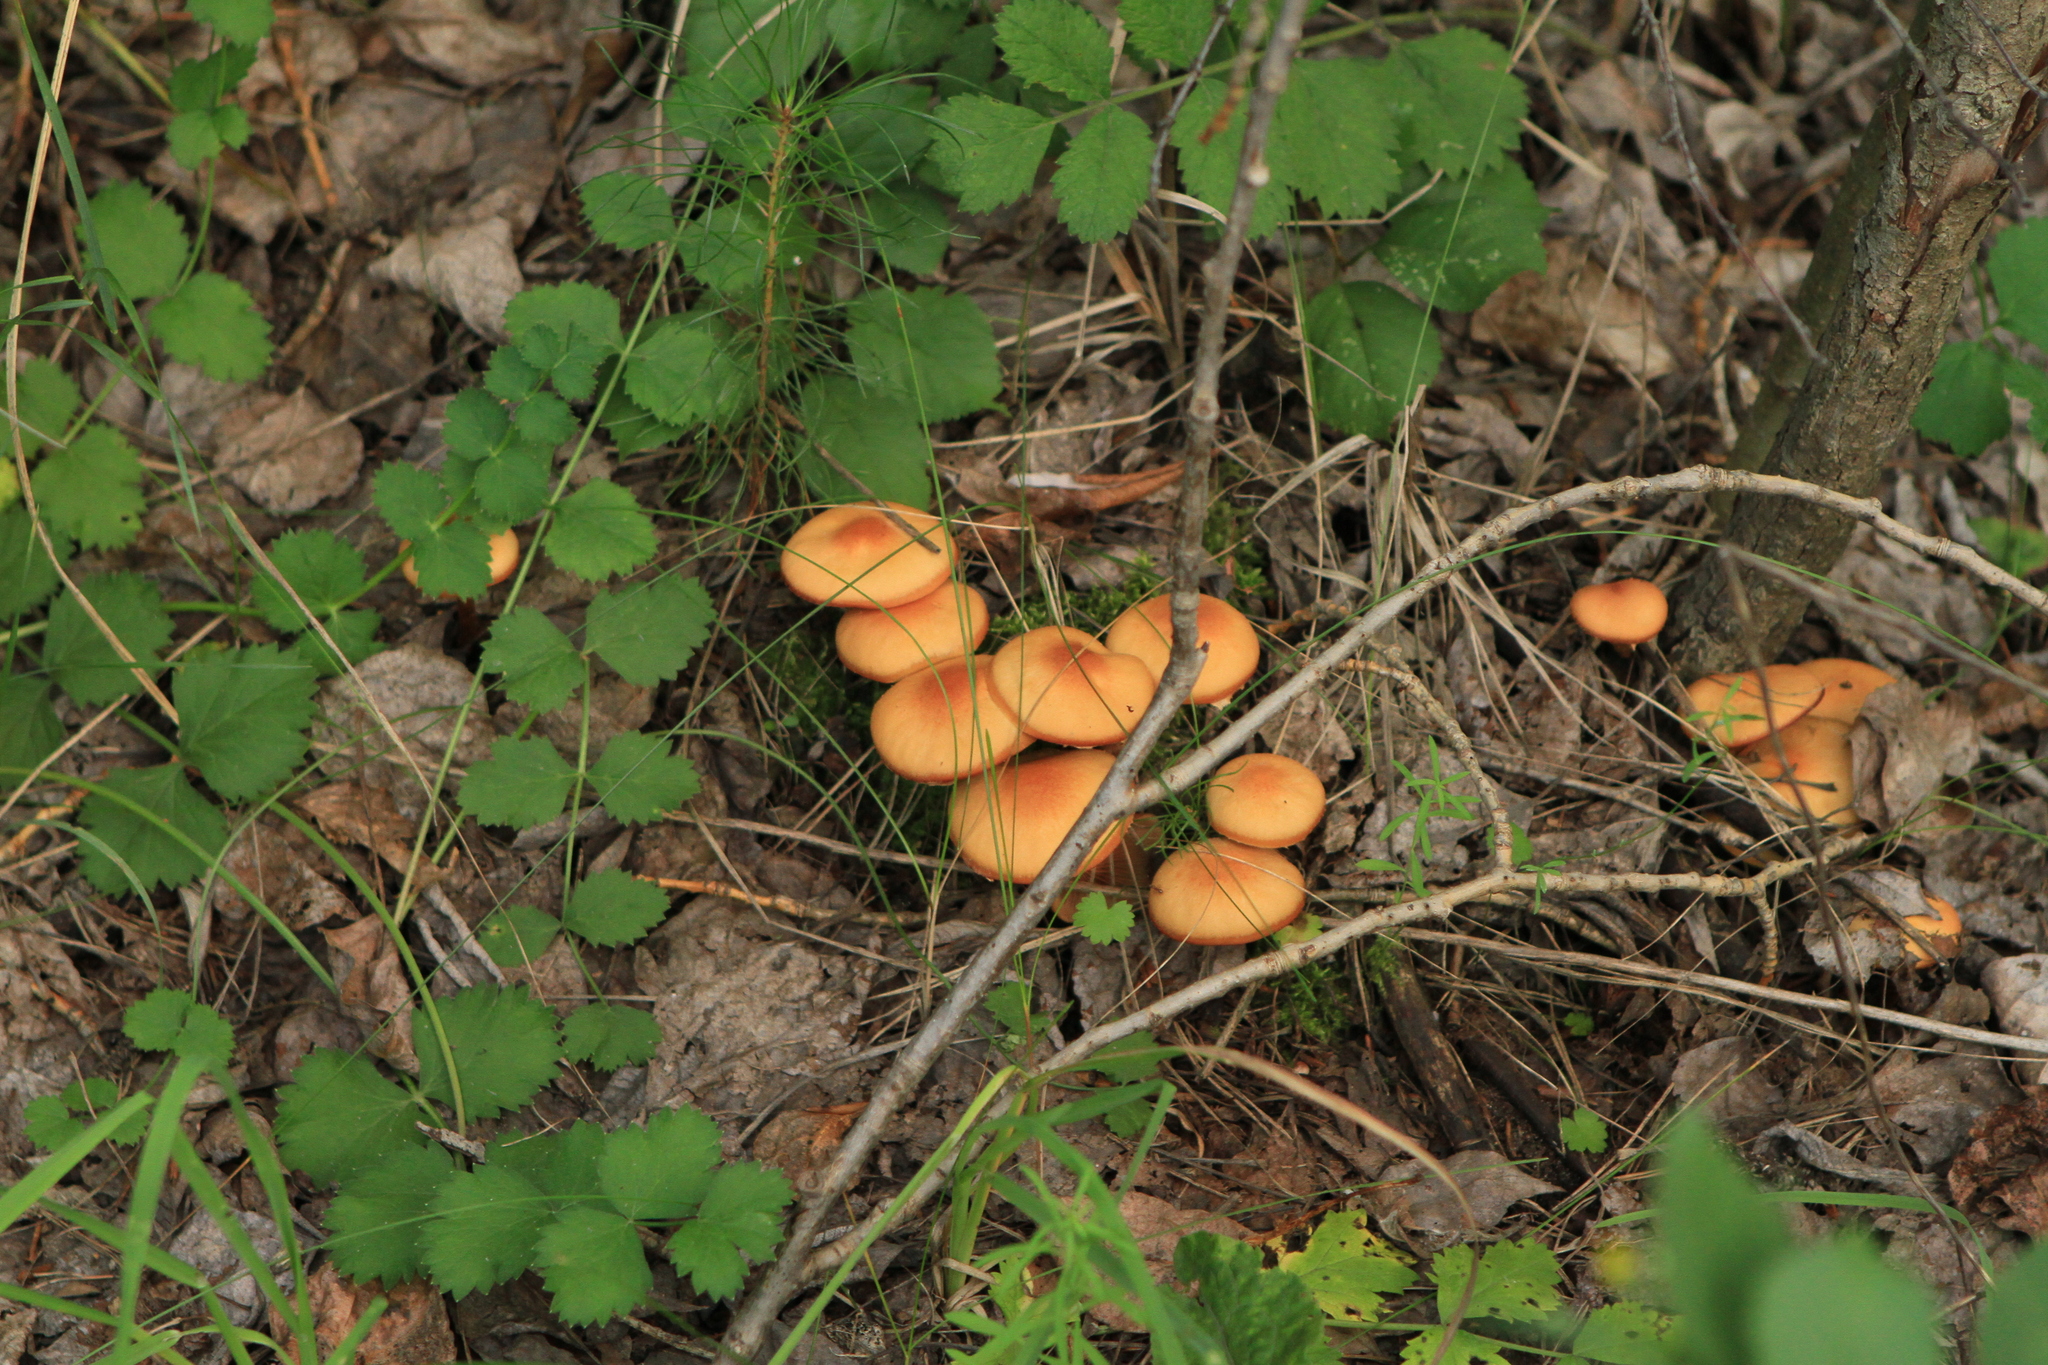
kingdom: Plantae
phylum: Tracheophyta
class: Magnoliopsida
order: Apiales
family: Apiaceae
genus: Pimpinella
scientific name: Pimpinella saxifraga
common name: Burnet-saxifrage
